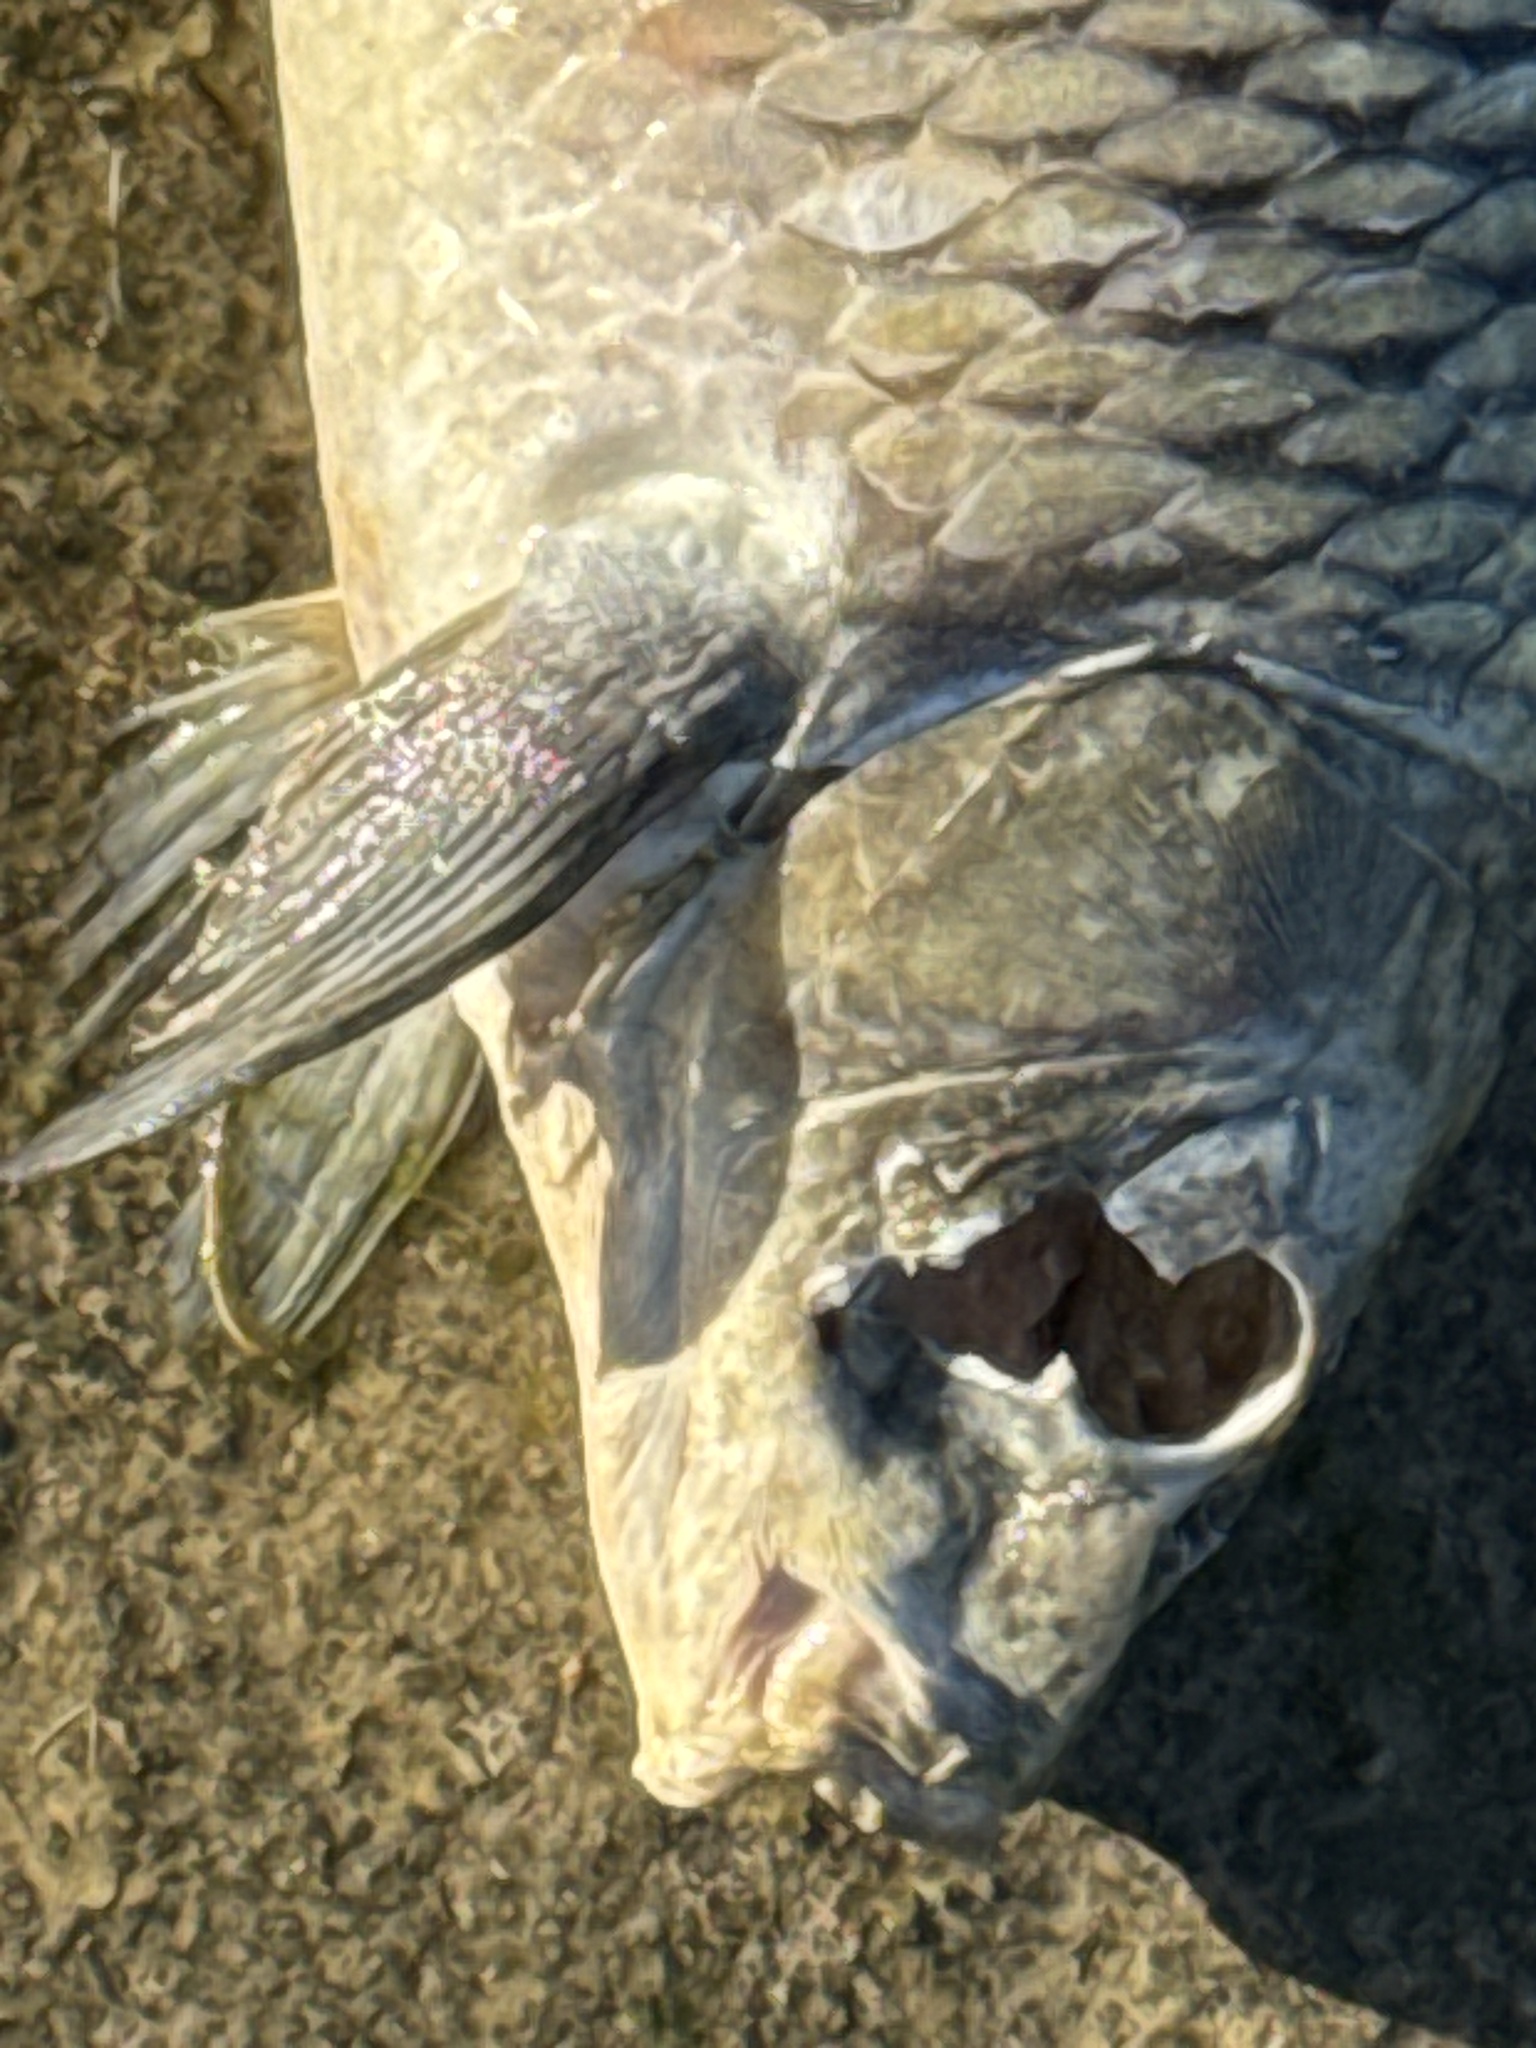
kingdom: Animalia
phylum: Chordata
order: Cypriniformes
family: Cyprinidae
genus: Cyprinus
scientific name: Cyprinus carpio
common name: Common carp
